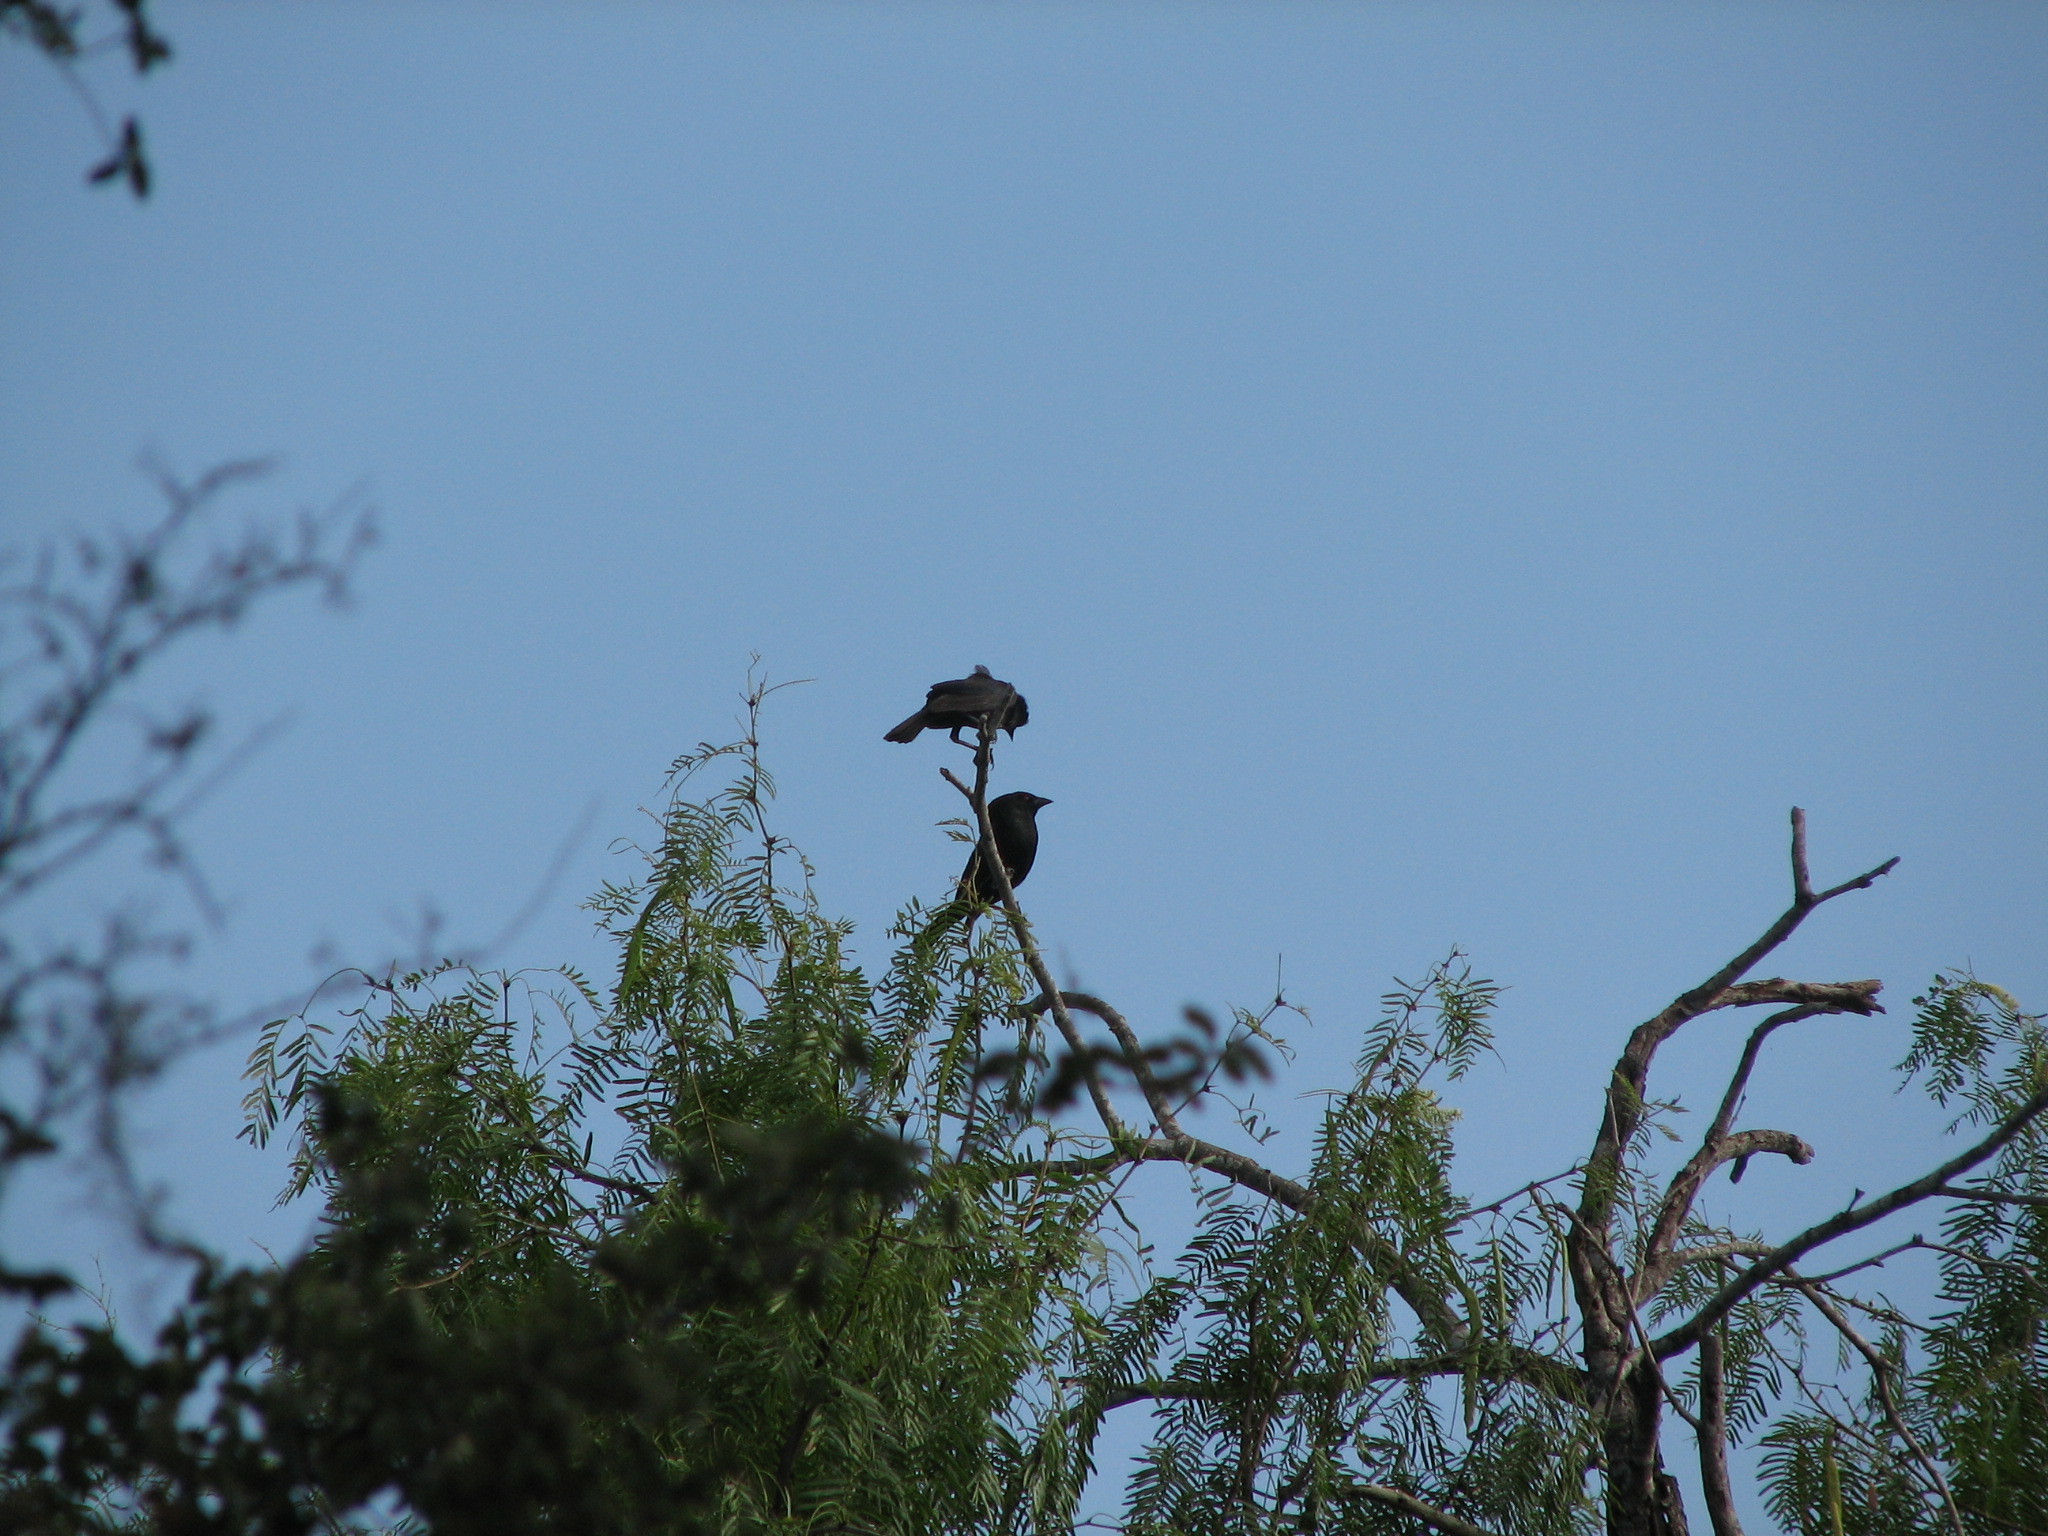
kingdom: Animalia
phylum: Chordata
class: Aves
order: Passeriformes
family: Icteridae
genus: Molothrus
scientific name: Molothrus aeneus
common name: Bronzed cowbird
